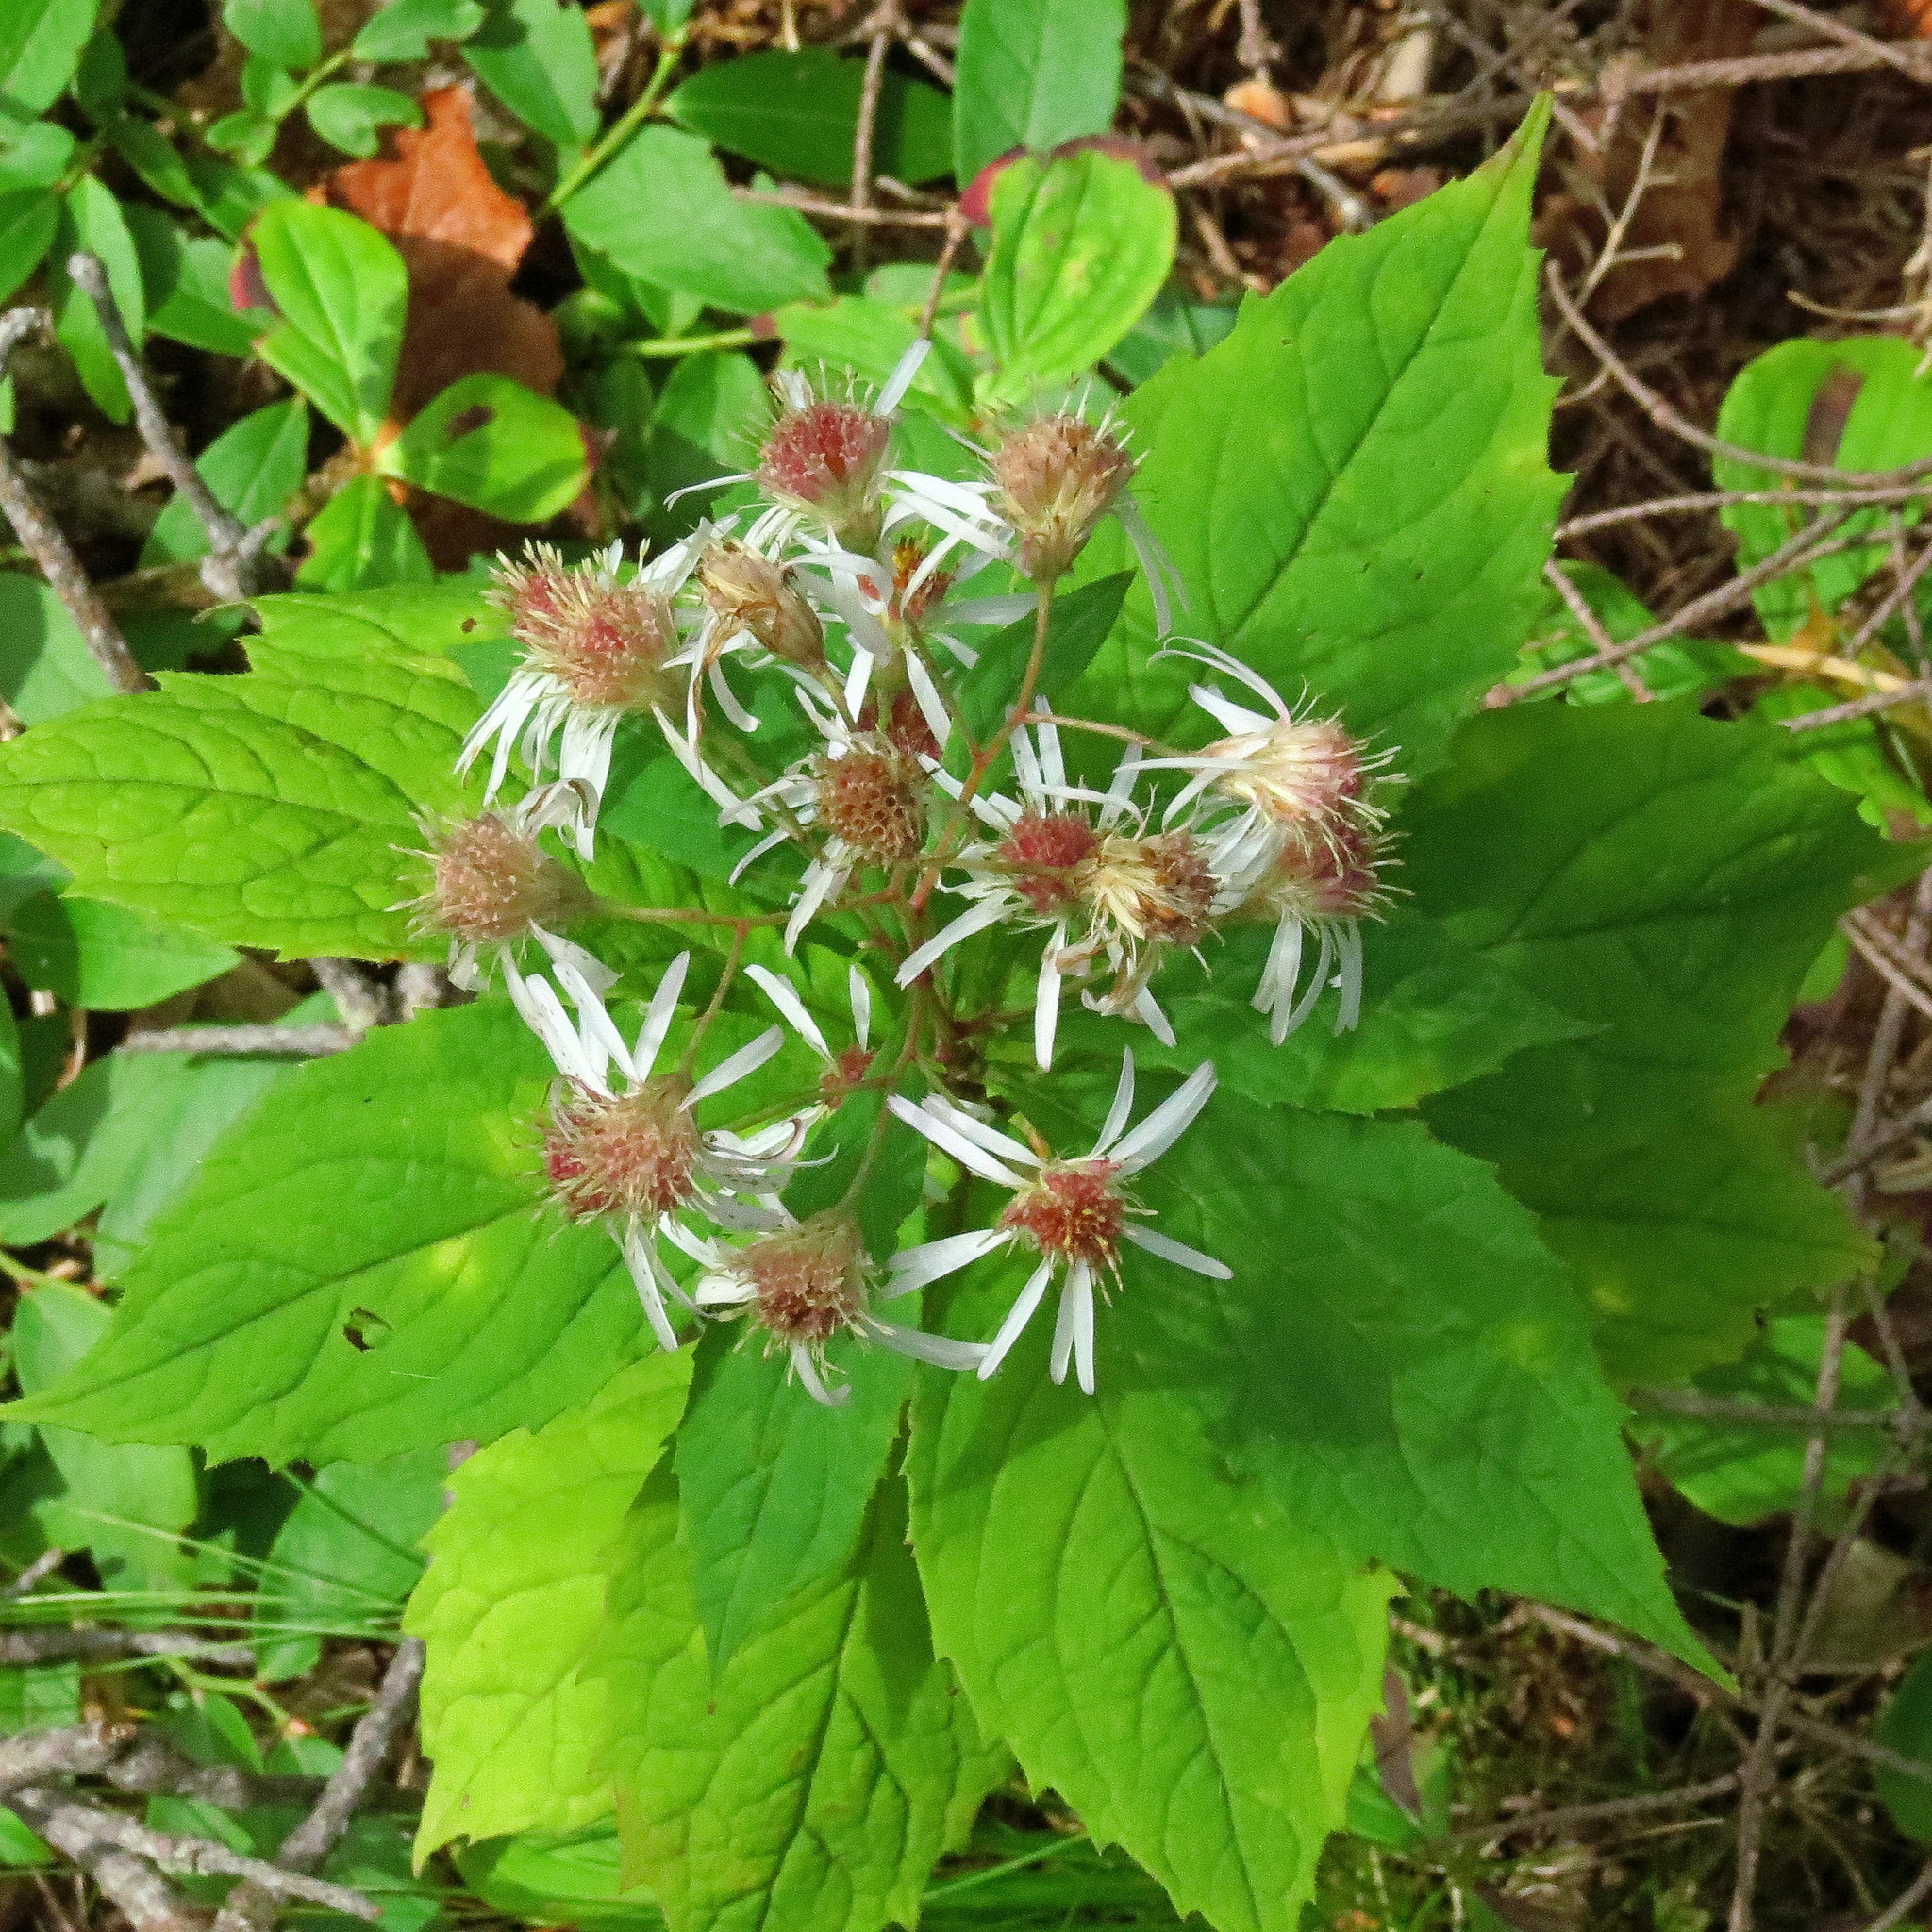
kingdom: Plantae
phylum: Tracheophyta
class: Magnoliopsida
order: Asterales
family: Asteraceae
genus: Oclemena
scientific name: Oclemena acuminata
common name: Mountain aster
